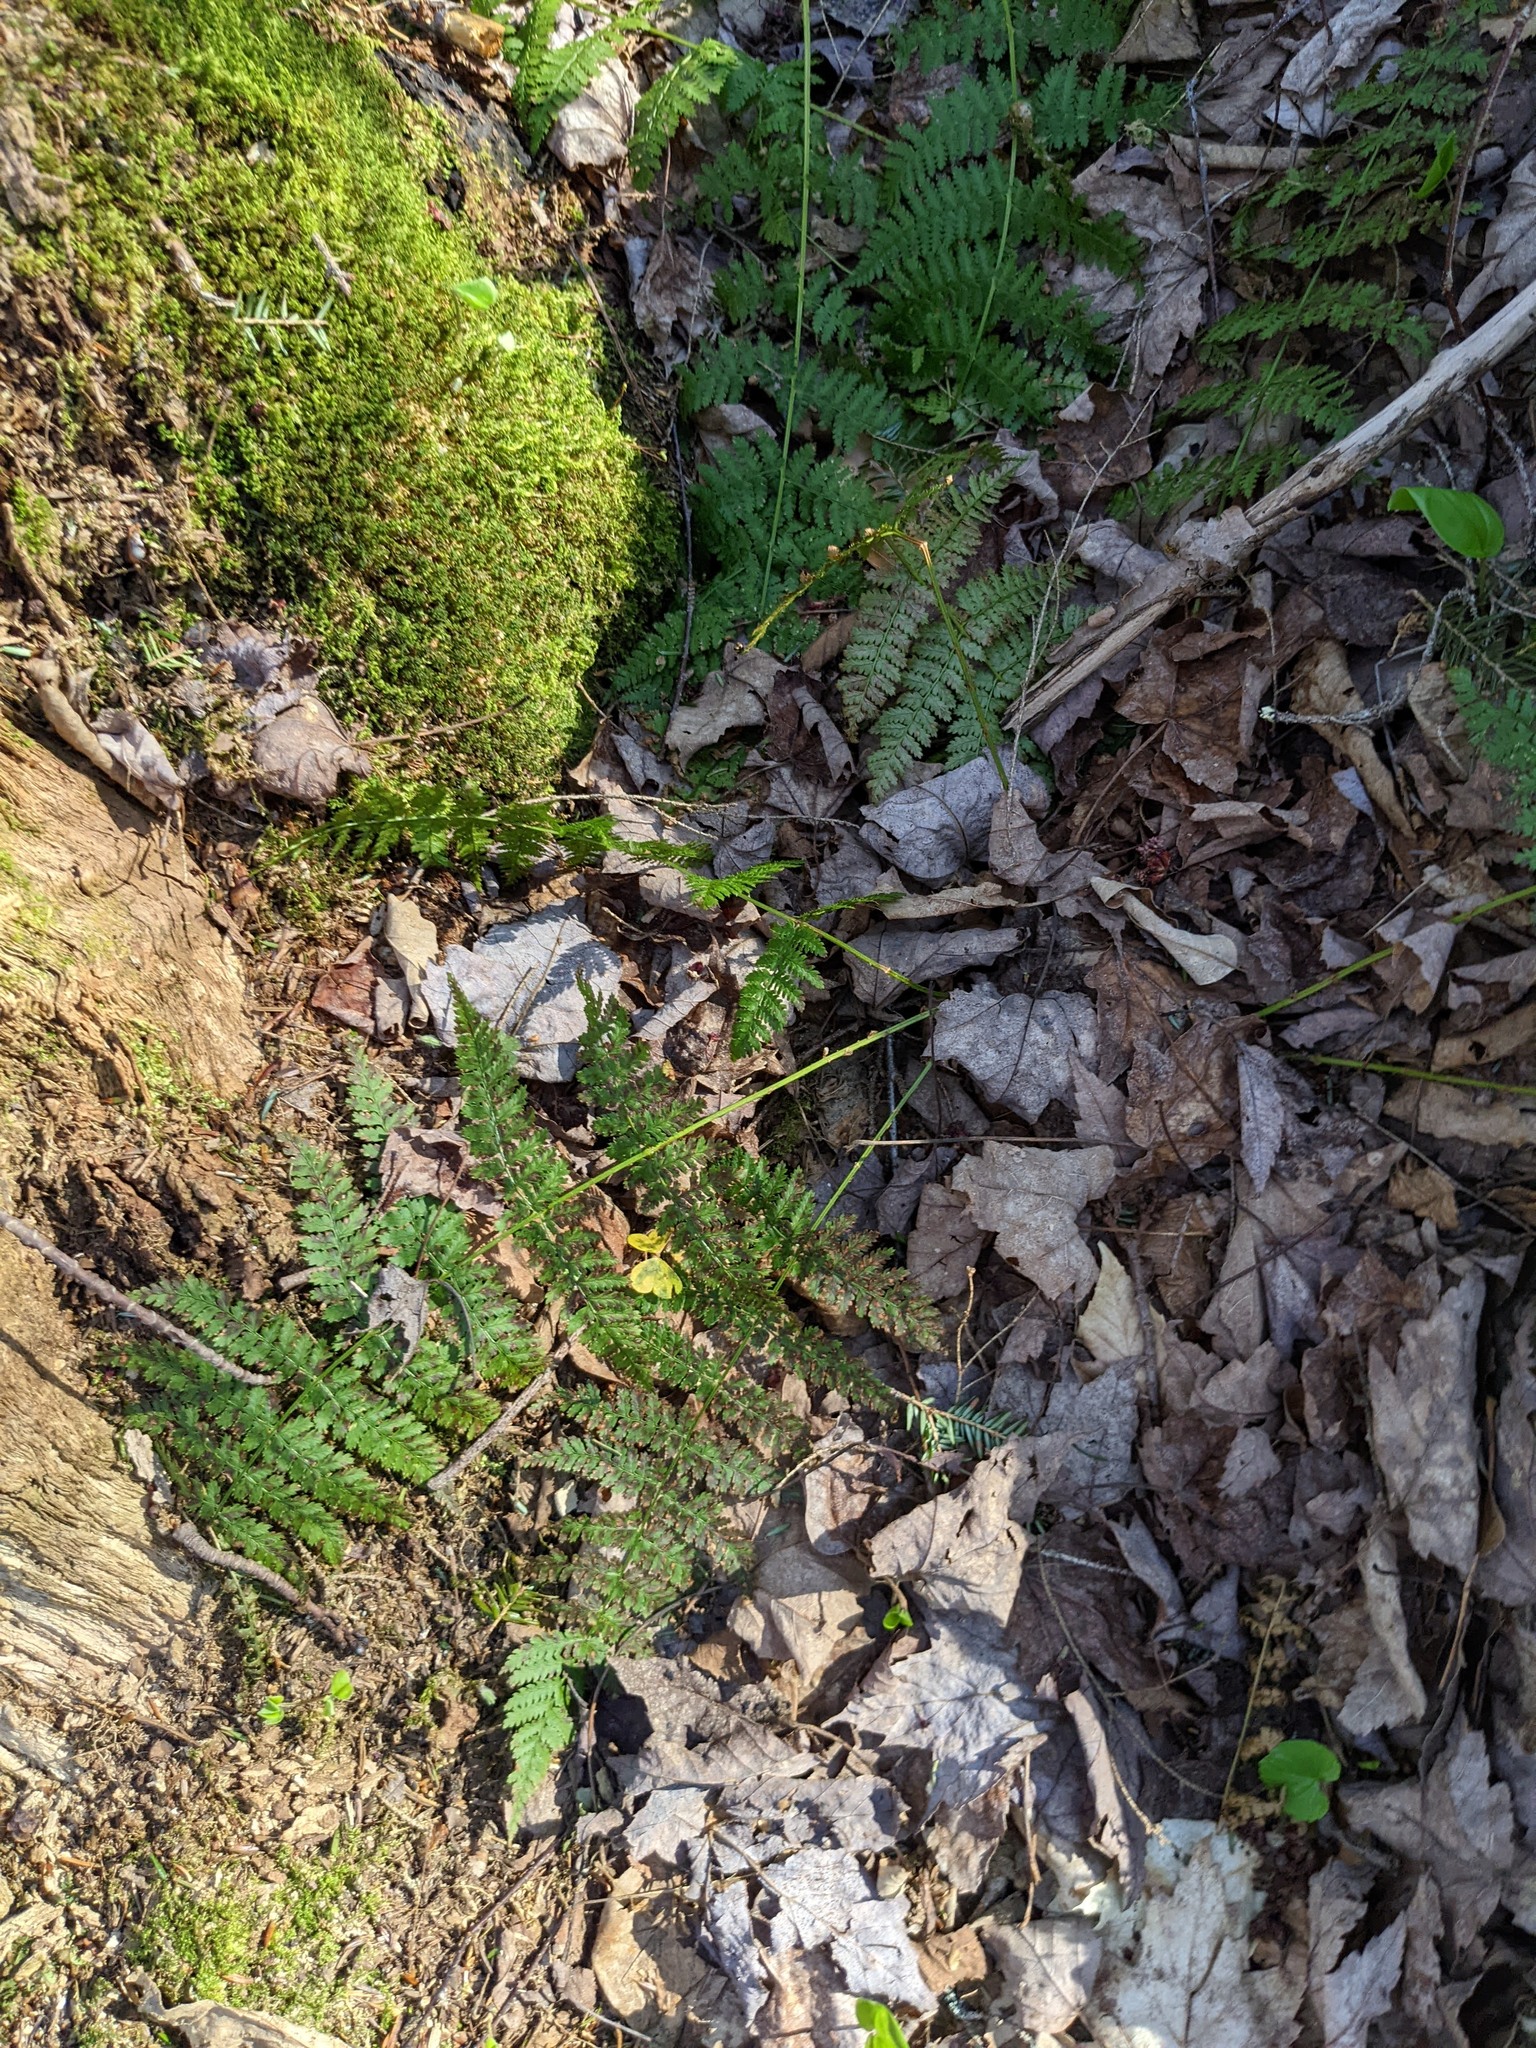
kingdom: Plantae
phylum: Tracheophyta
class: Polypodiopsida
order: Polypodiales
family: Dryopteridaceae
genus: Dryopteris
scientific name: Dryopteris intermedia
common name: Evergreen wood fern
